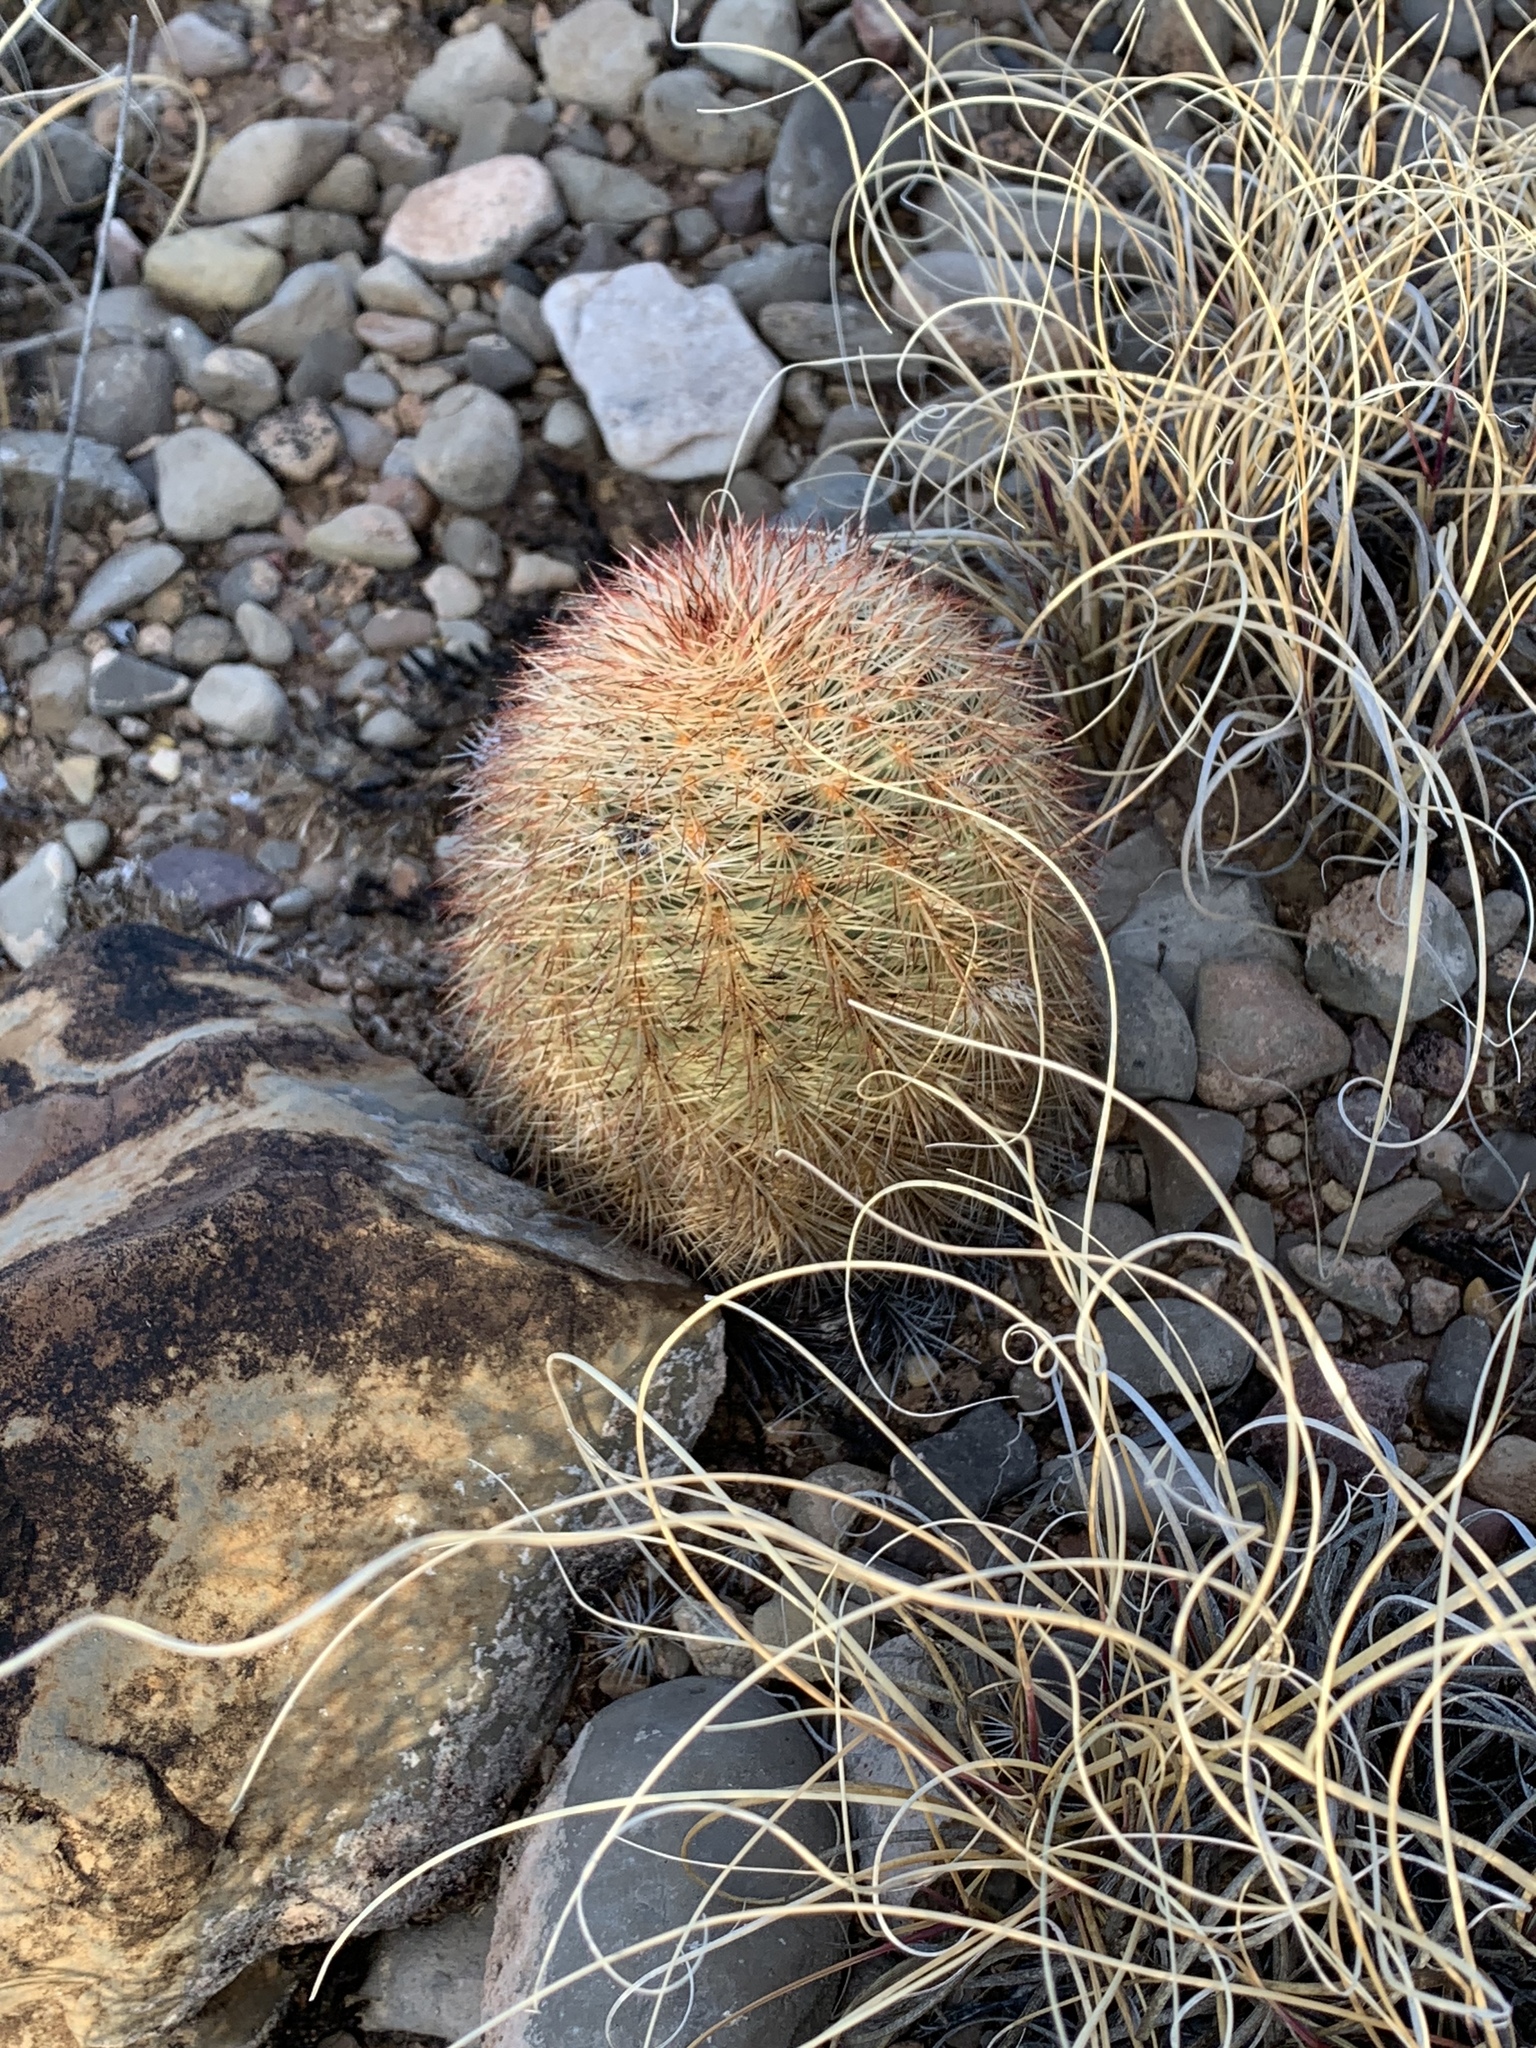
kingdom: Plantae
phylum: Tracheophyta
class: Magnoliopsida
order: Caryophyllales
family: Cactaceae
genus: Echinocereus
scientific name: Echinocereus dasyacanthus
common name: Spiny hedgehog cactus
